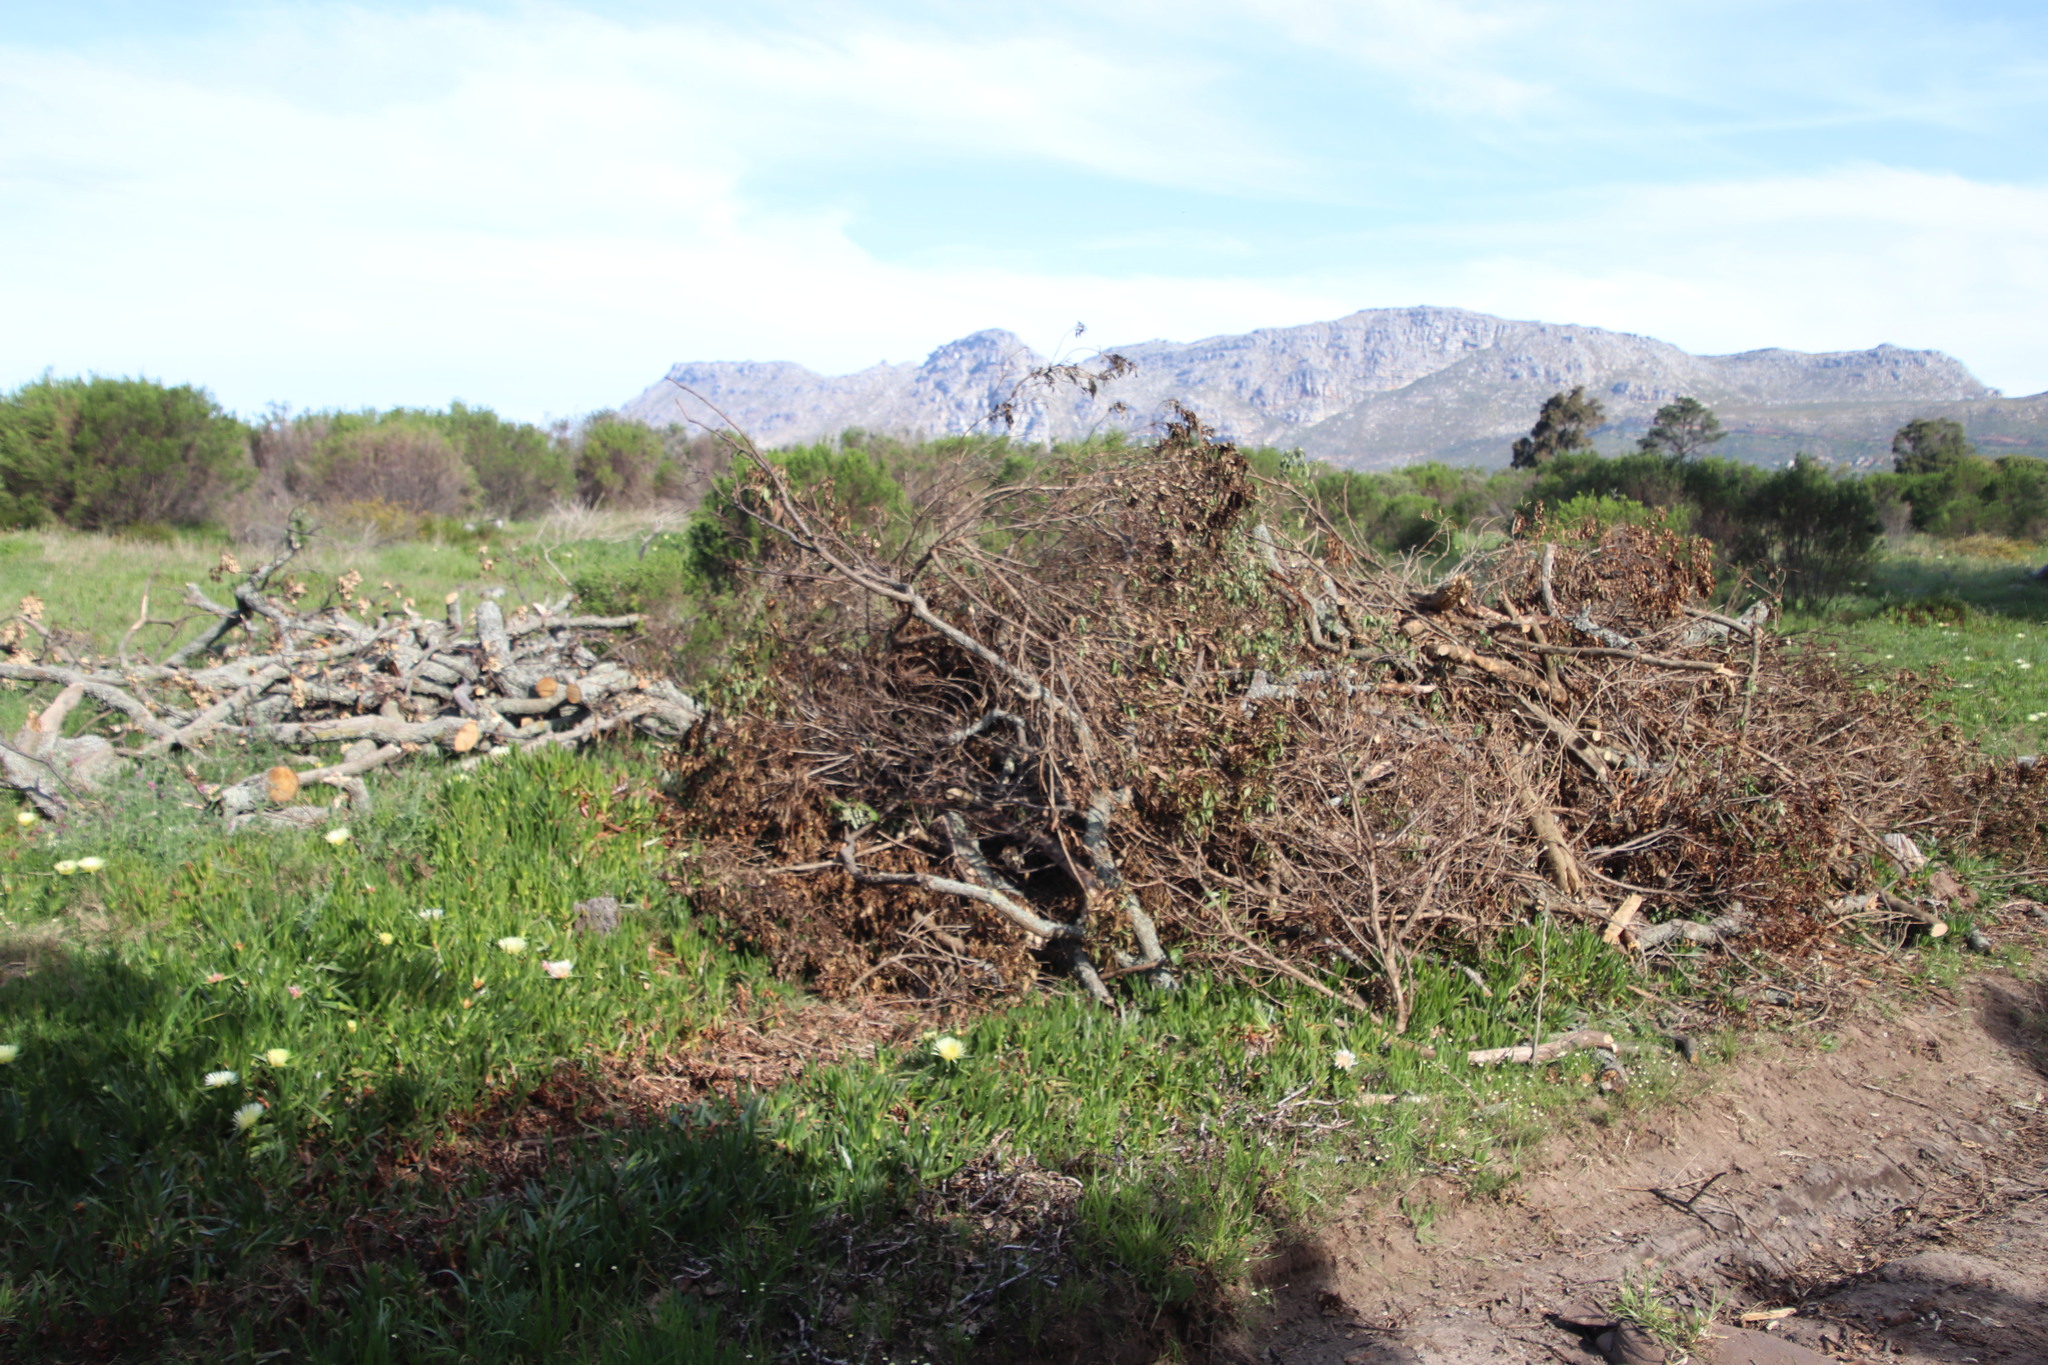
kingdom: Plantae
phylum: Tracheophyta
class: Magnoliopsida
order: Fagales
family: Fagaceae
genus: Quercus
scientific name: Quercus robur
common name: Pedunculate oak
